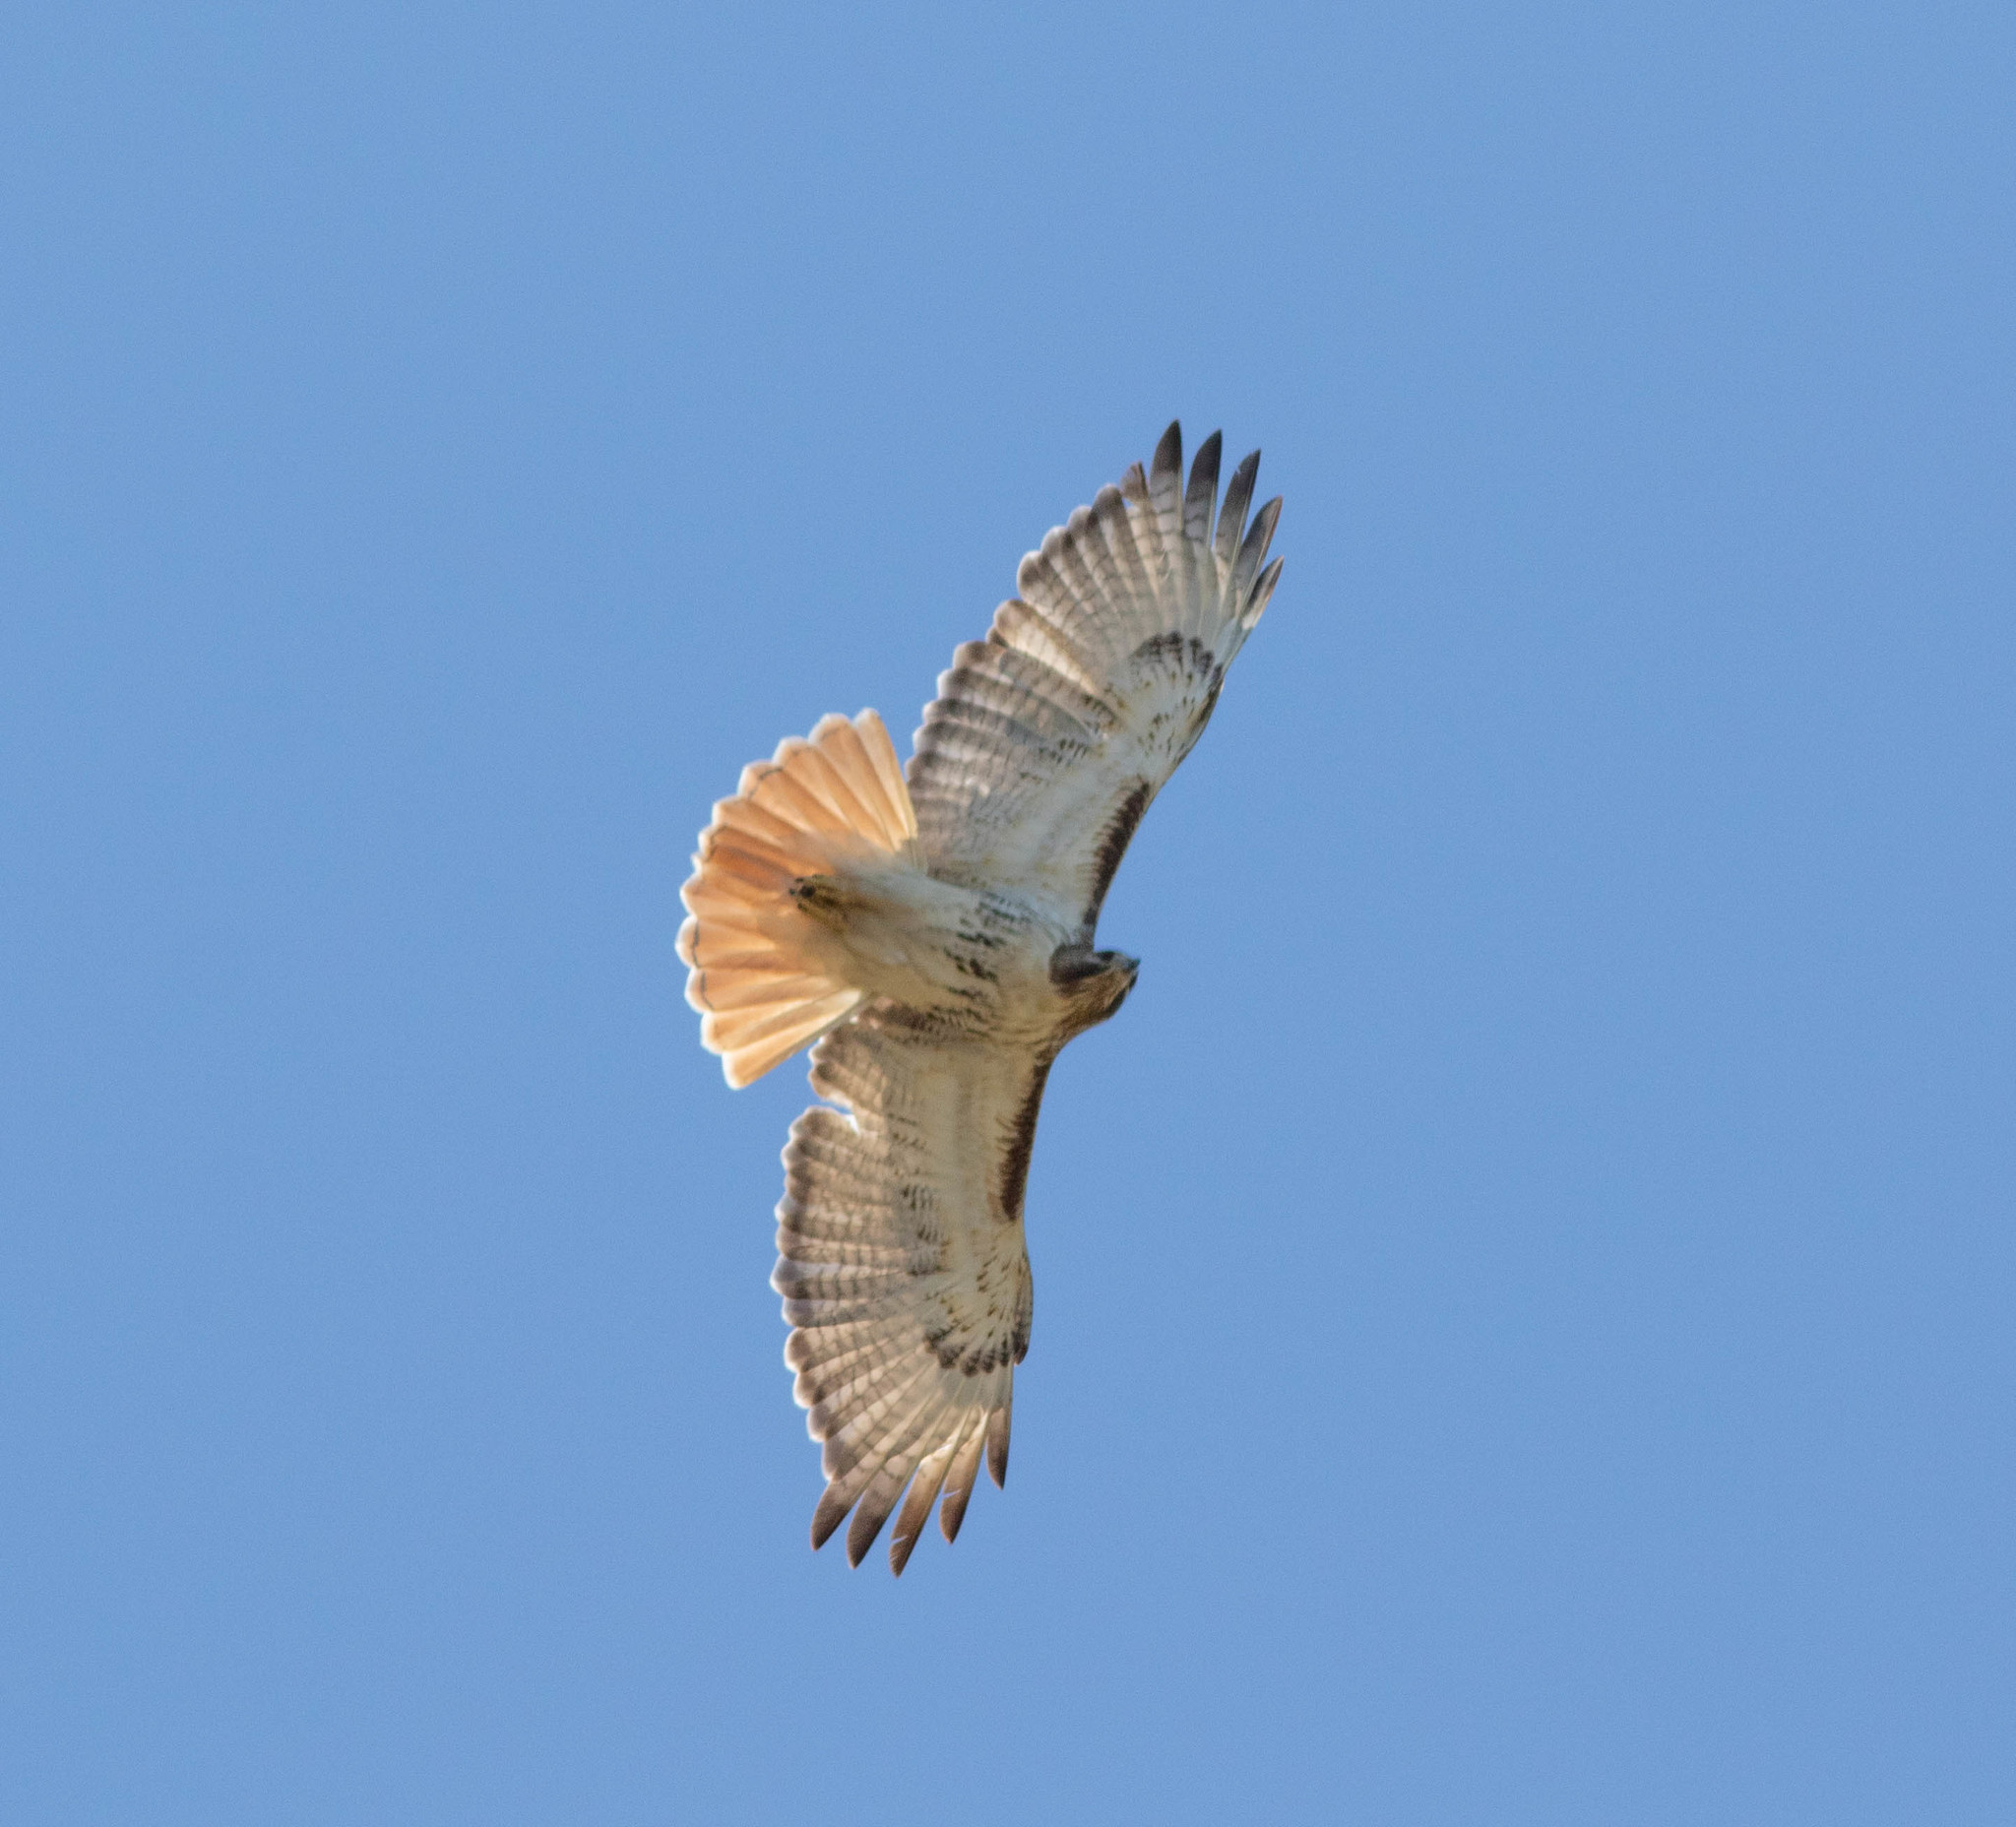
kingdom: Animalia
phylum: Chordata
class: Aves
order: Accipitriformes
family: Accipitridae
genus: Buteo
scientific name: Buteo jamaicensis
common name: Red-tailed hawk
